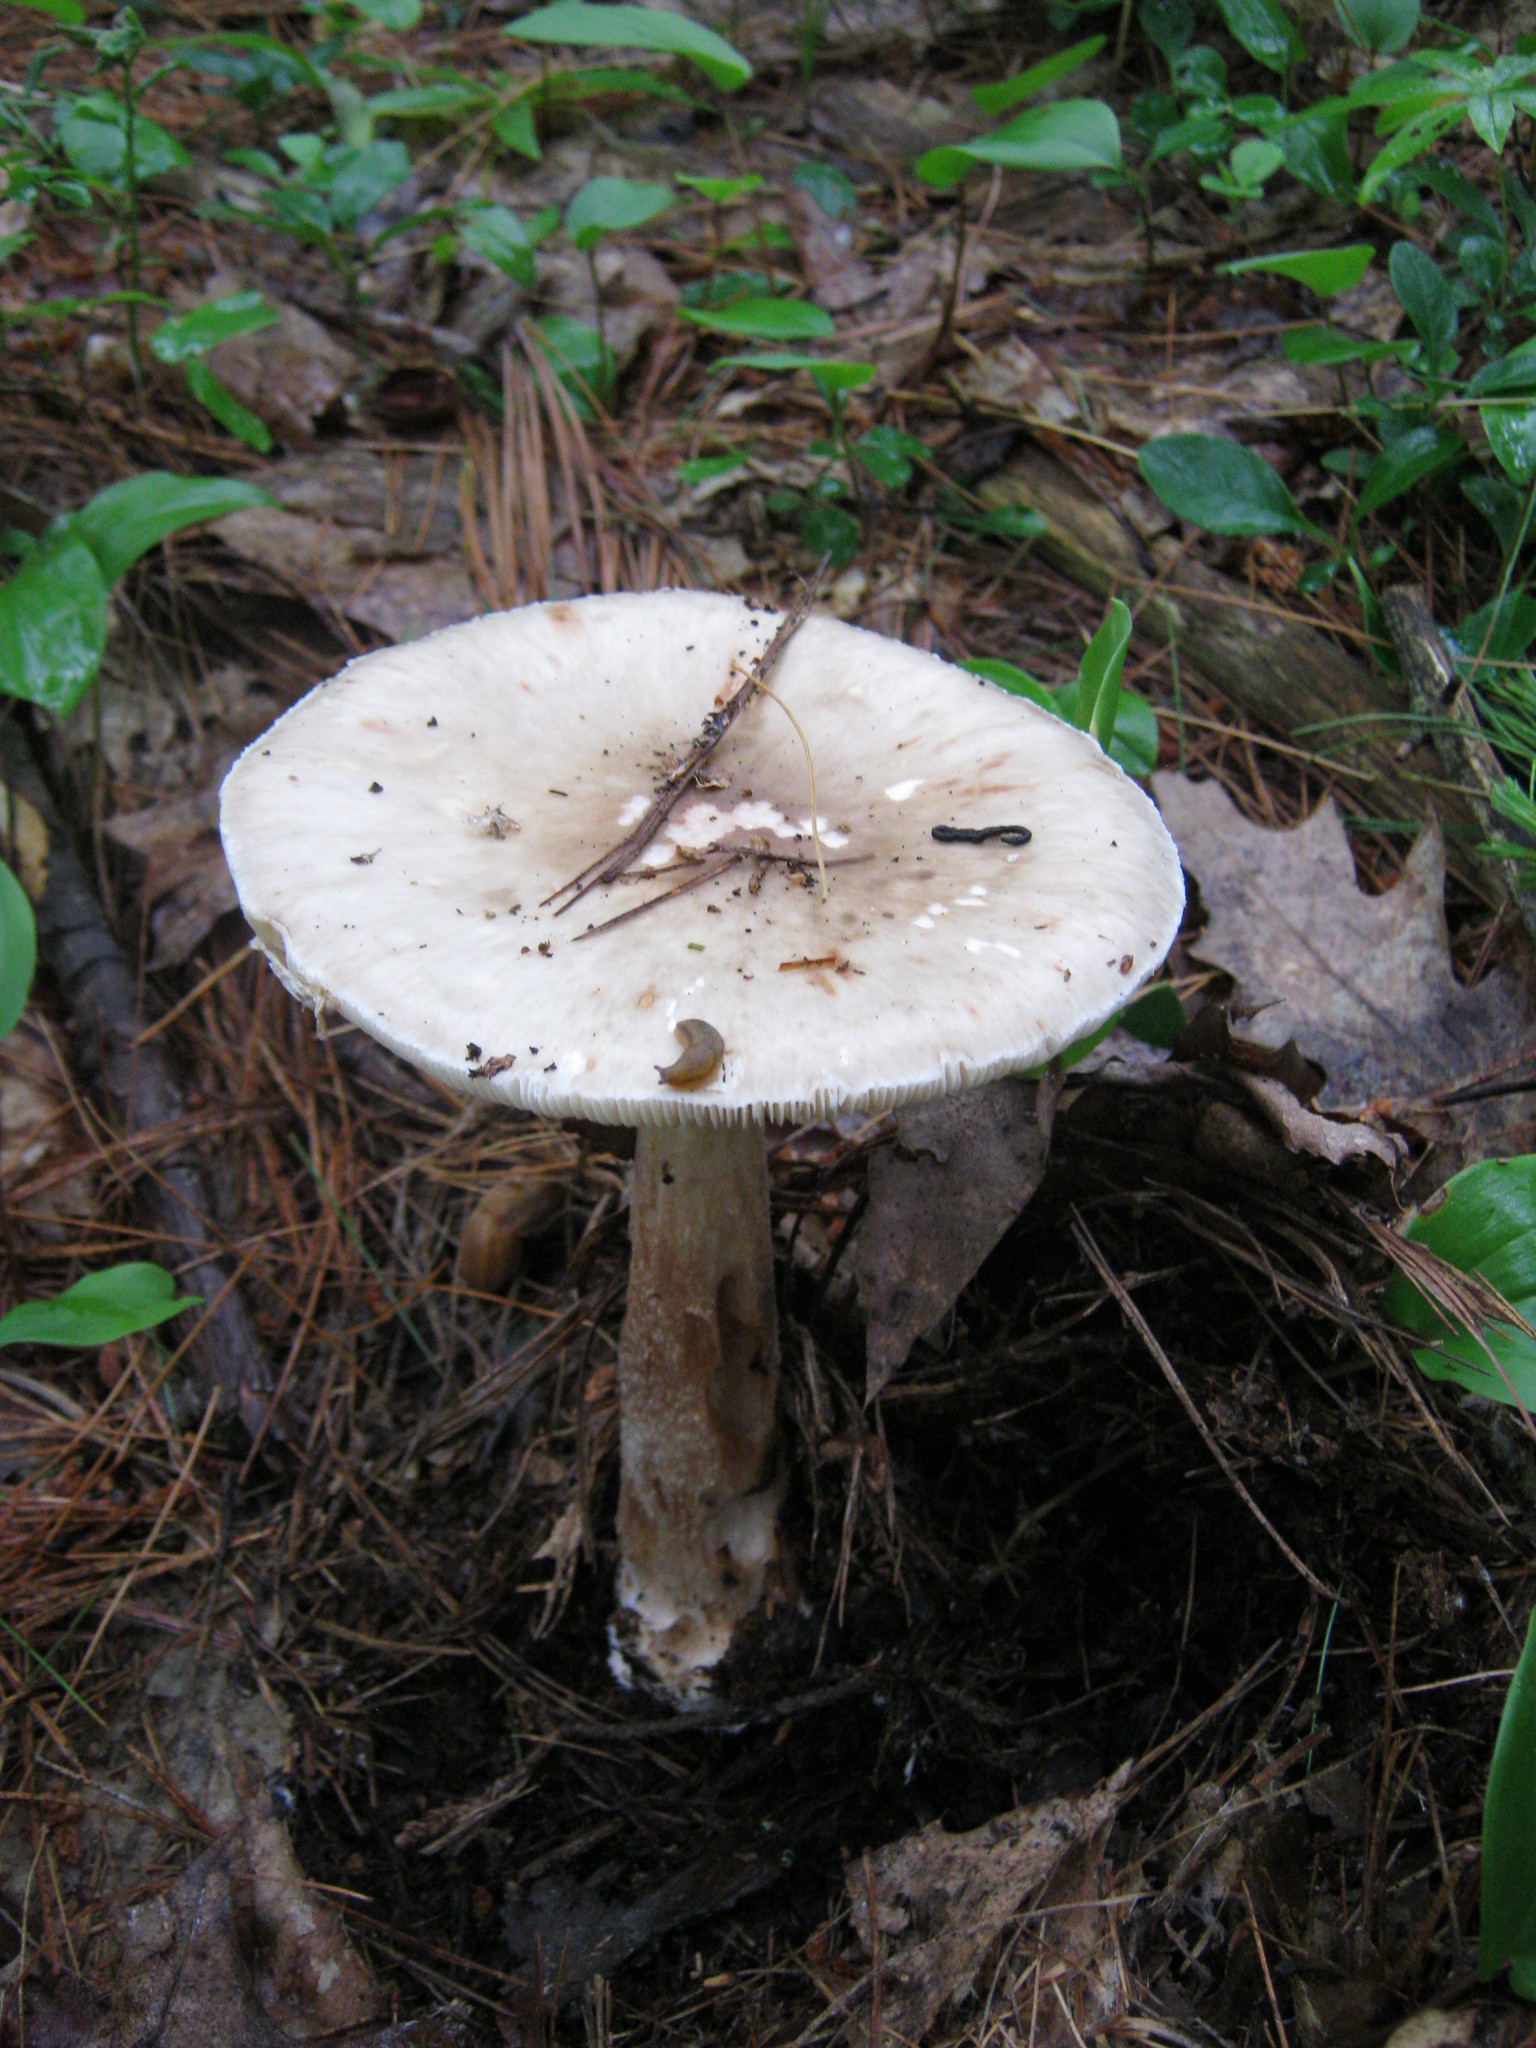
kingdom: Fungi
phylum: Basidiomycota
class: Agaricomycetes
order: Agaricales
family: Amanitaceae
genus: Amanita
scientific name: Amanita submaculata
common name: Ball gown amanita
